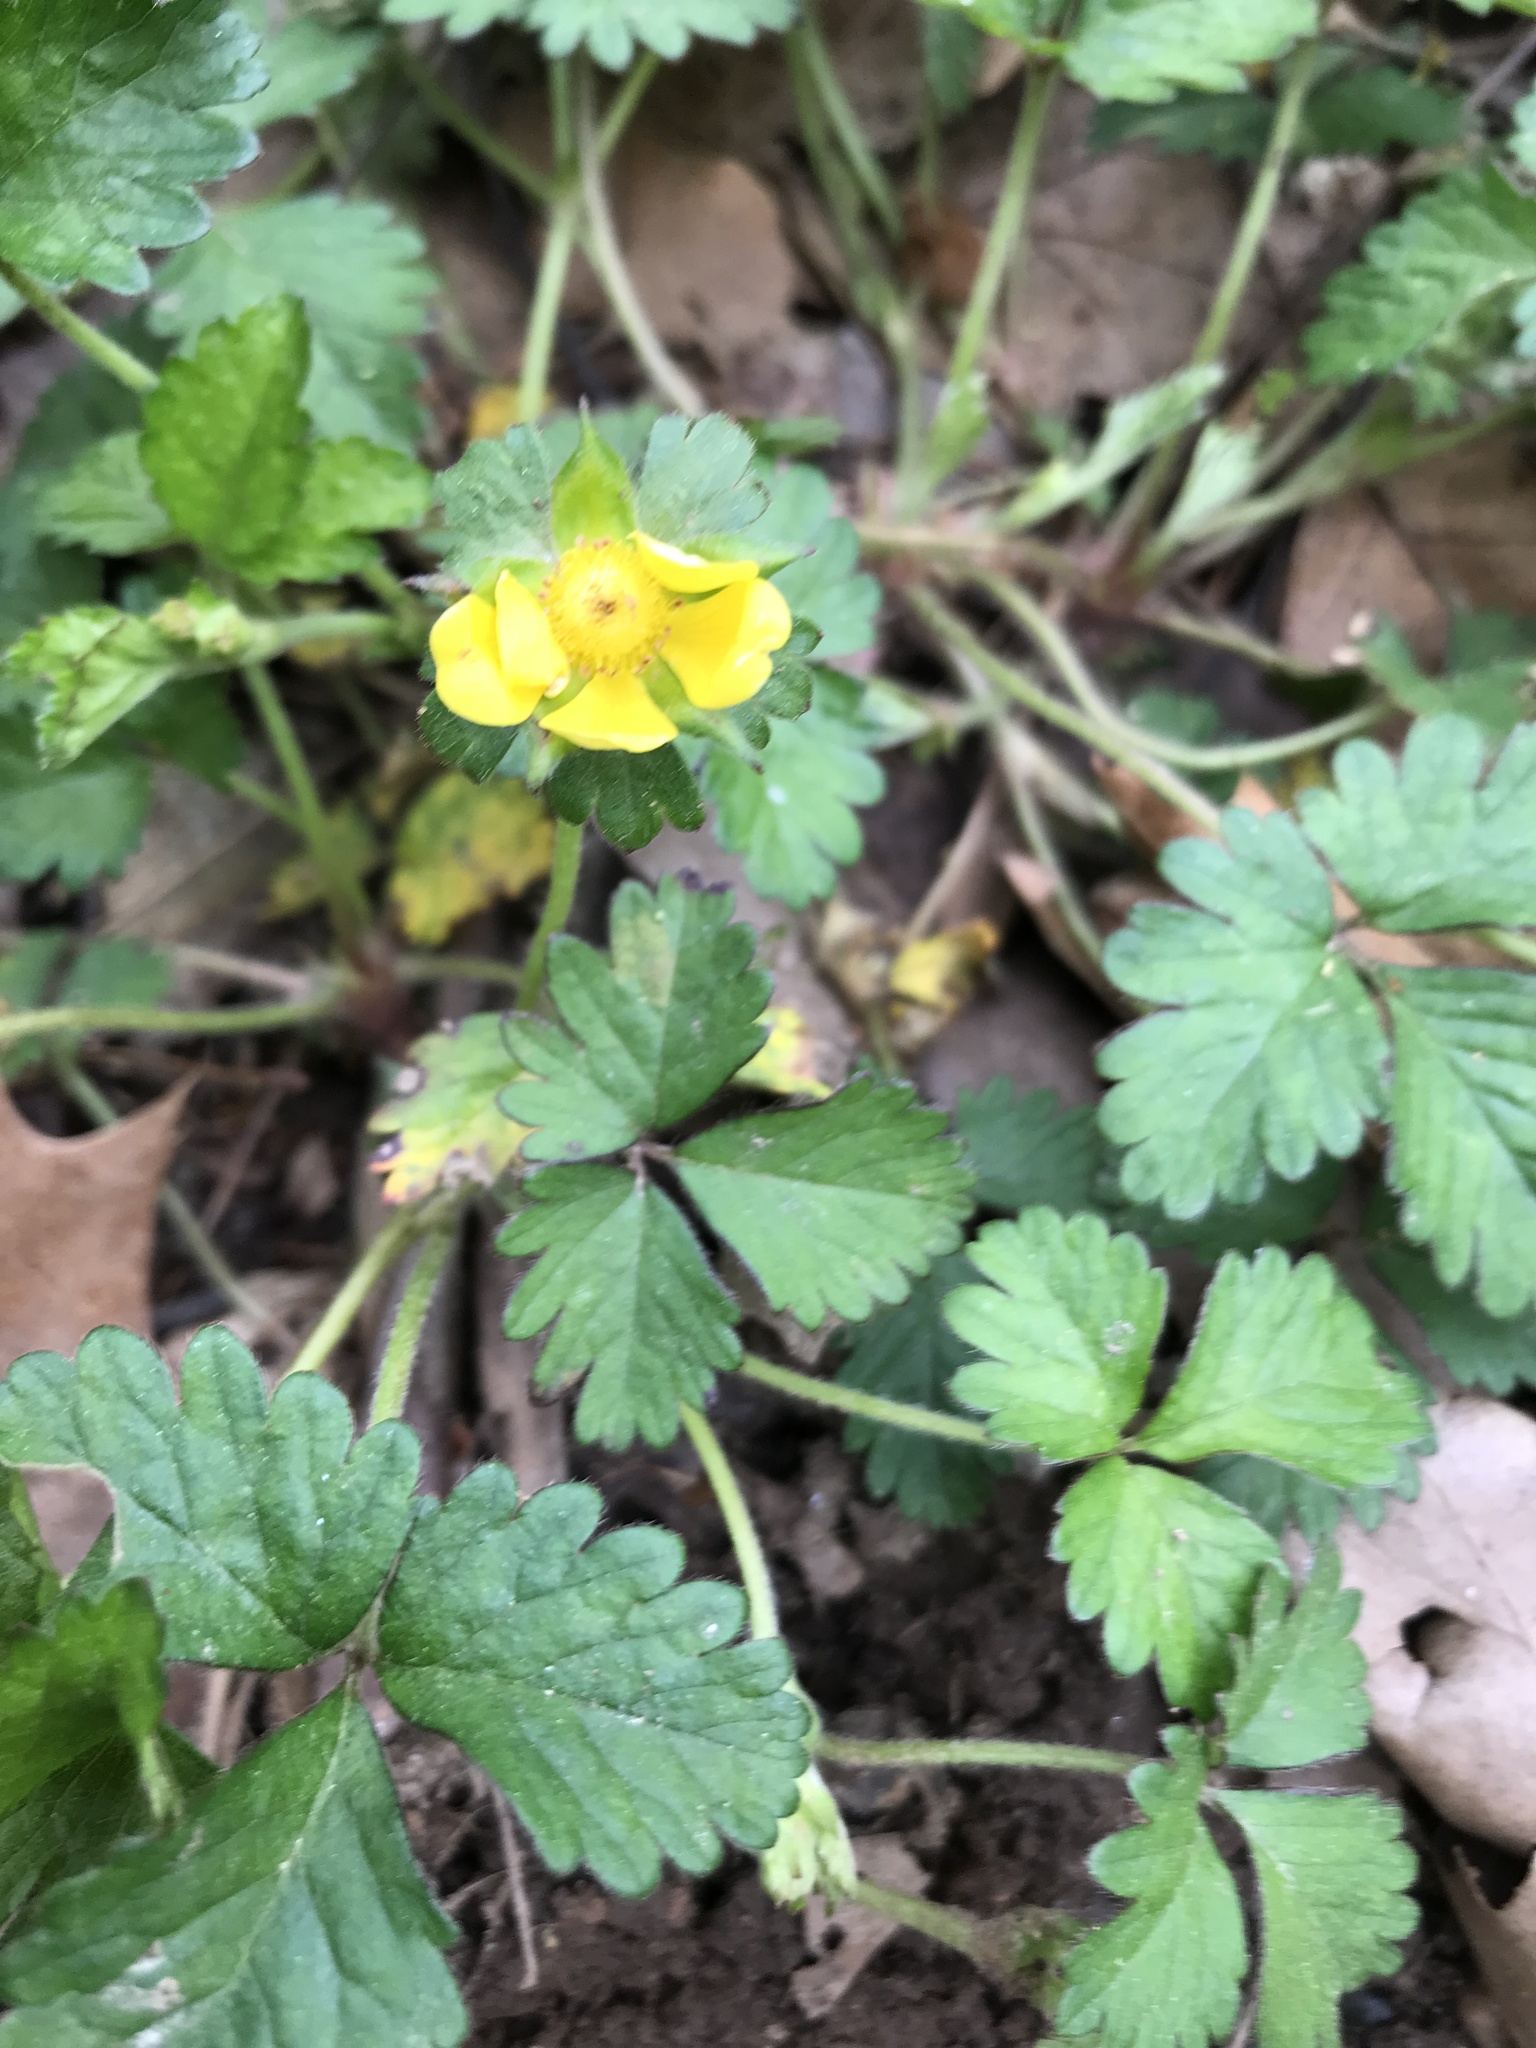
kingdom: Plantae
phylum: Tracheophyta
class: Magnoliopsida
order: Rosales
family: Rosaceae
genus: Potentilla
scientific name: Potentilla indica
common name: Yellow-flowered strawberry
